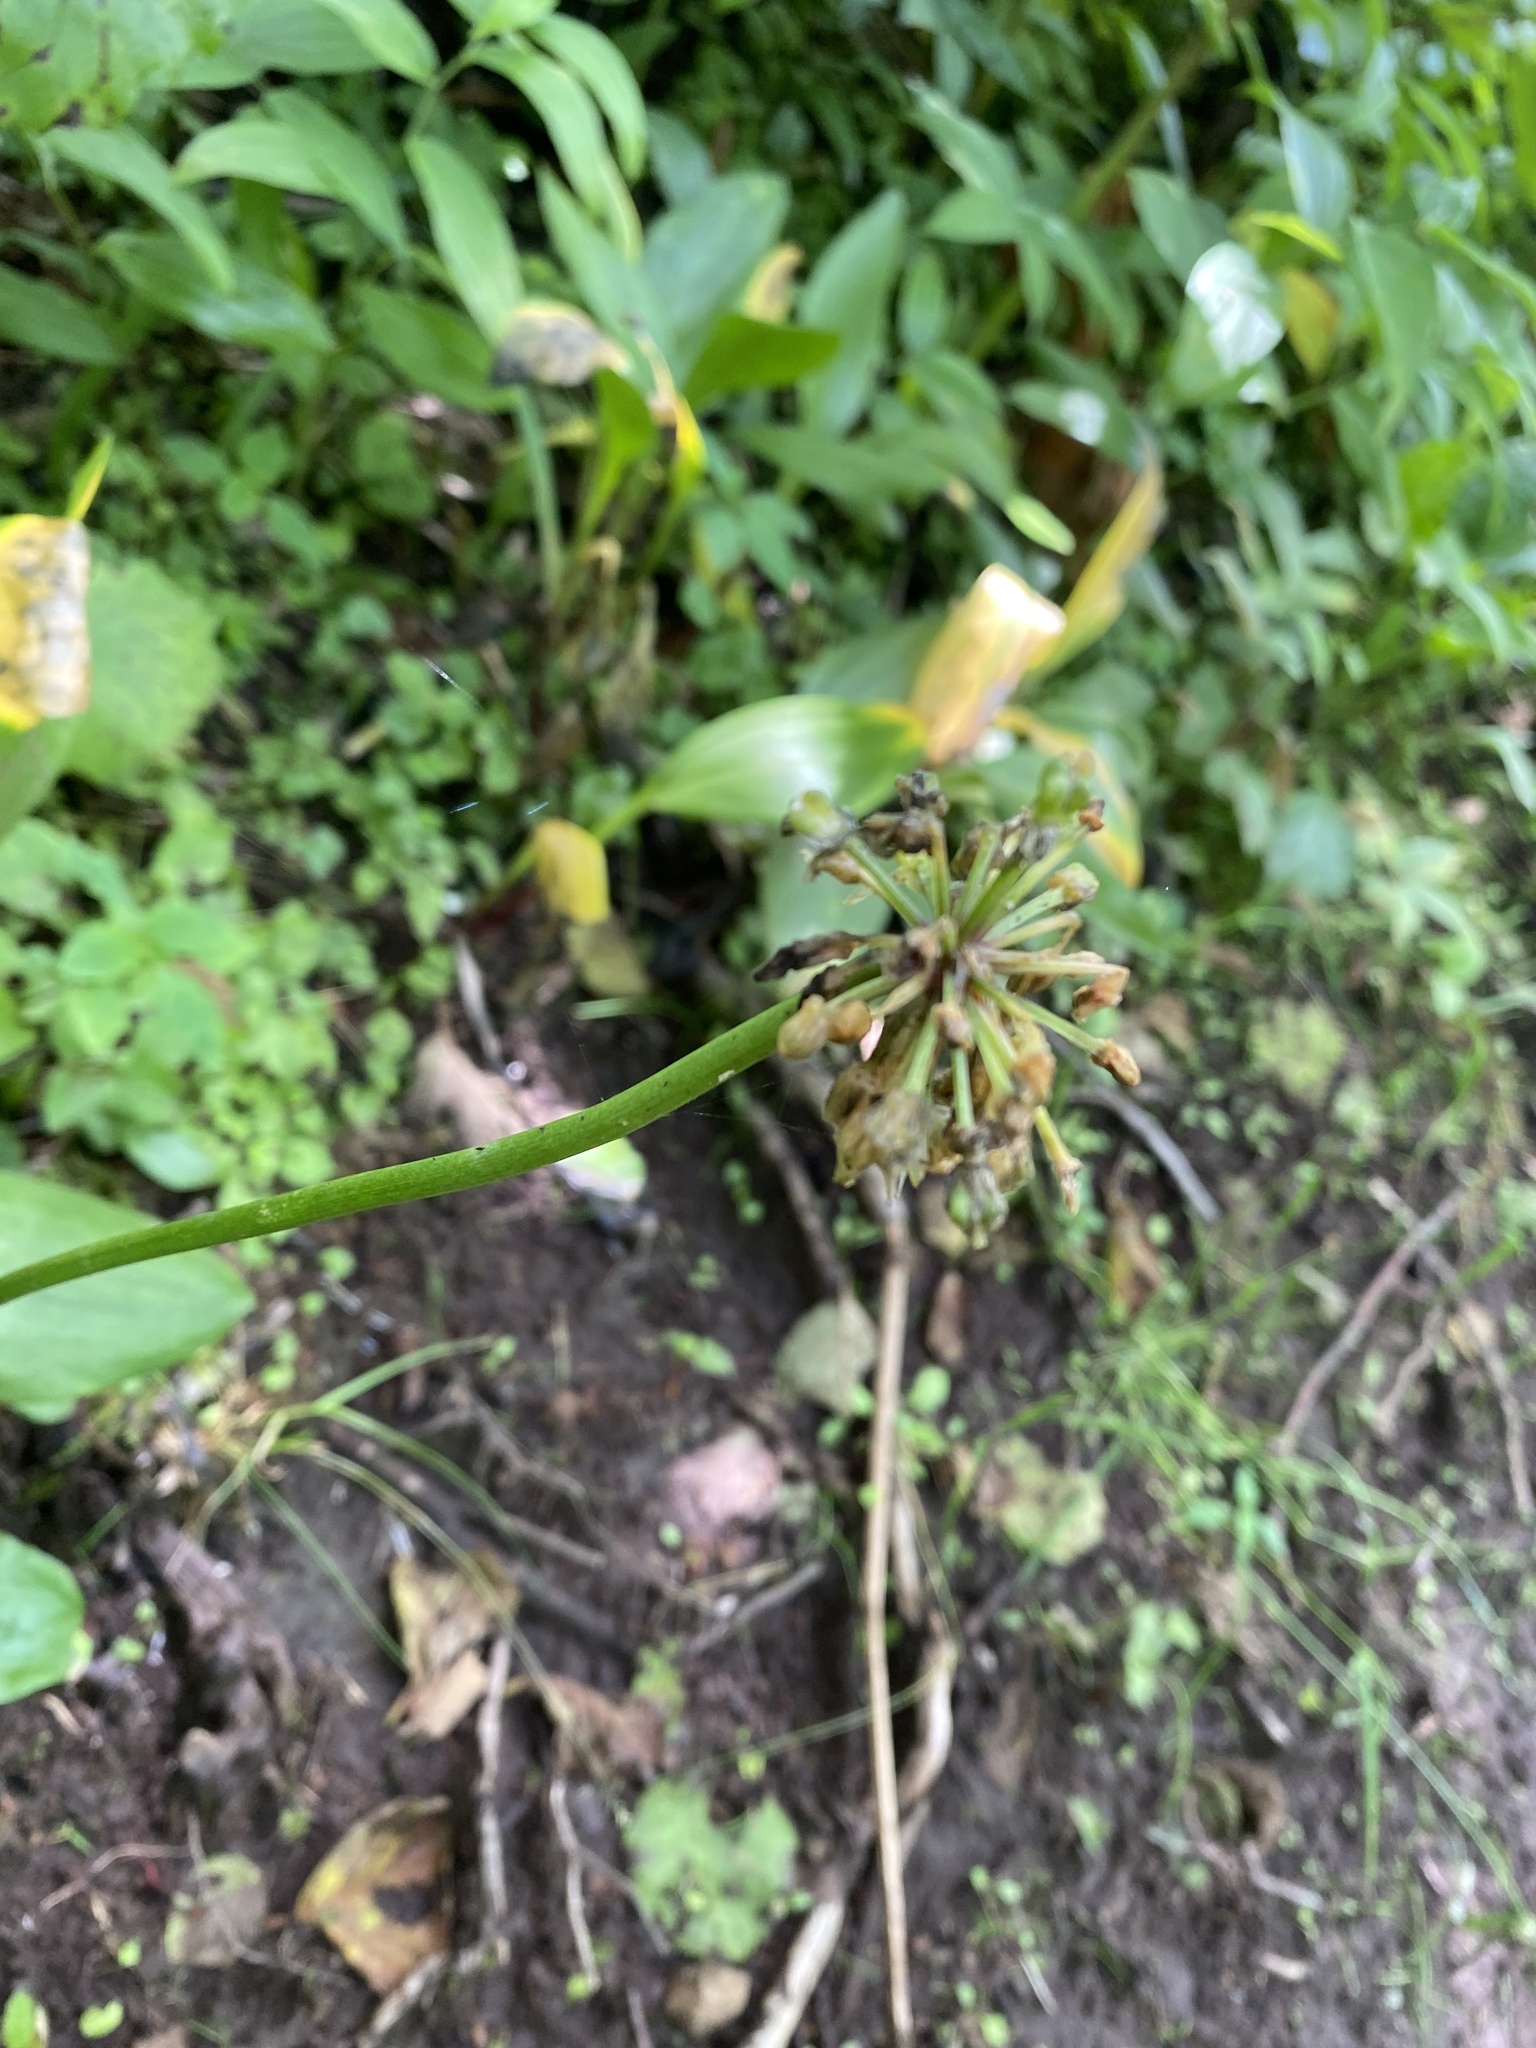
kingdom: Plantae
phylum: Tracheophyta
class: Liliopsida
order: Asparagales
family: Amaryllidaceae
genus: Allium
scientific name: Allium ochotense
